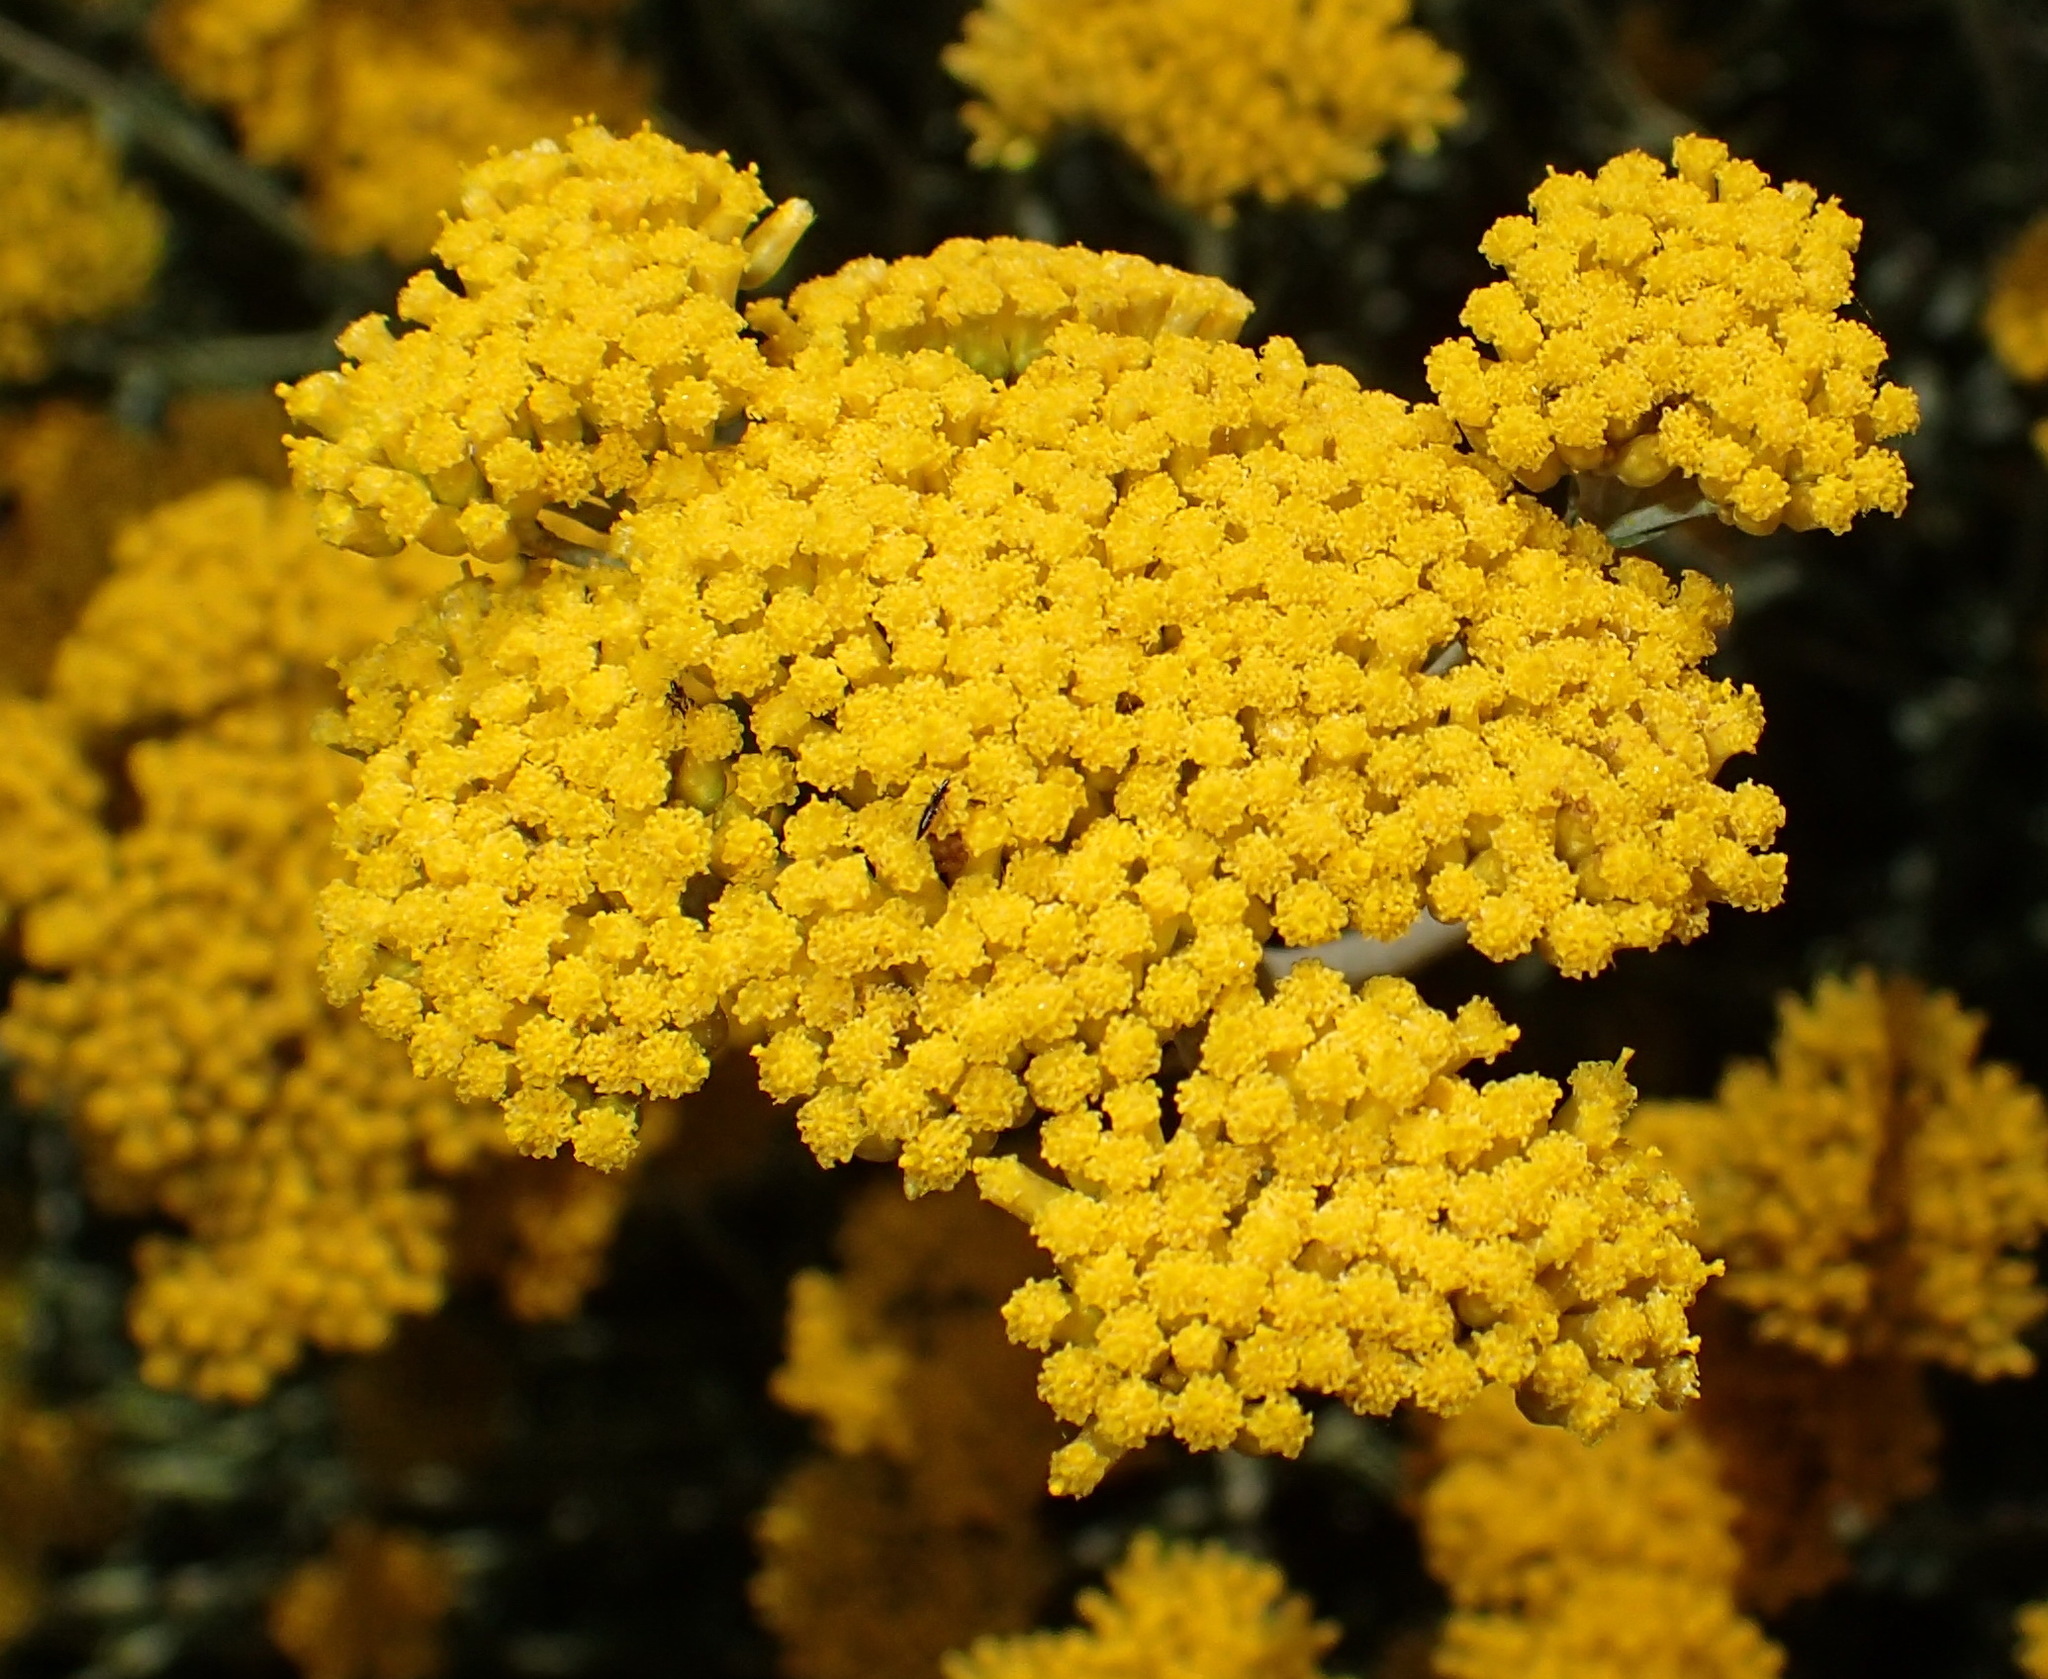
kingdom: Plantae
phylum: Tracheophyta
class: Magnoliopsida
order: Asterales
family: Asteraceae
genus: Helichrysum
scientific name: Helichrysum cymosum
